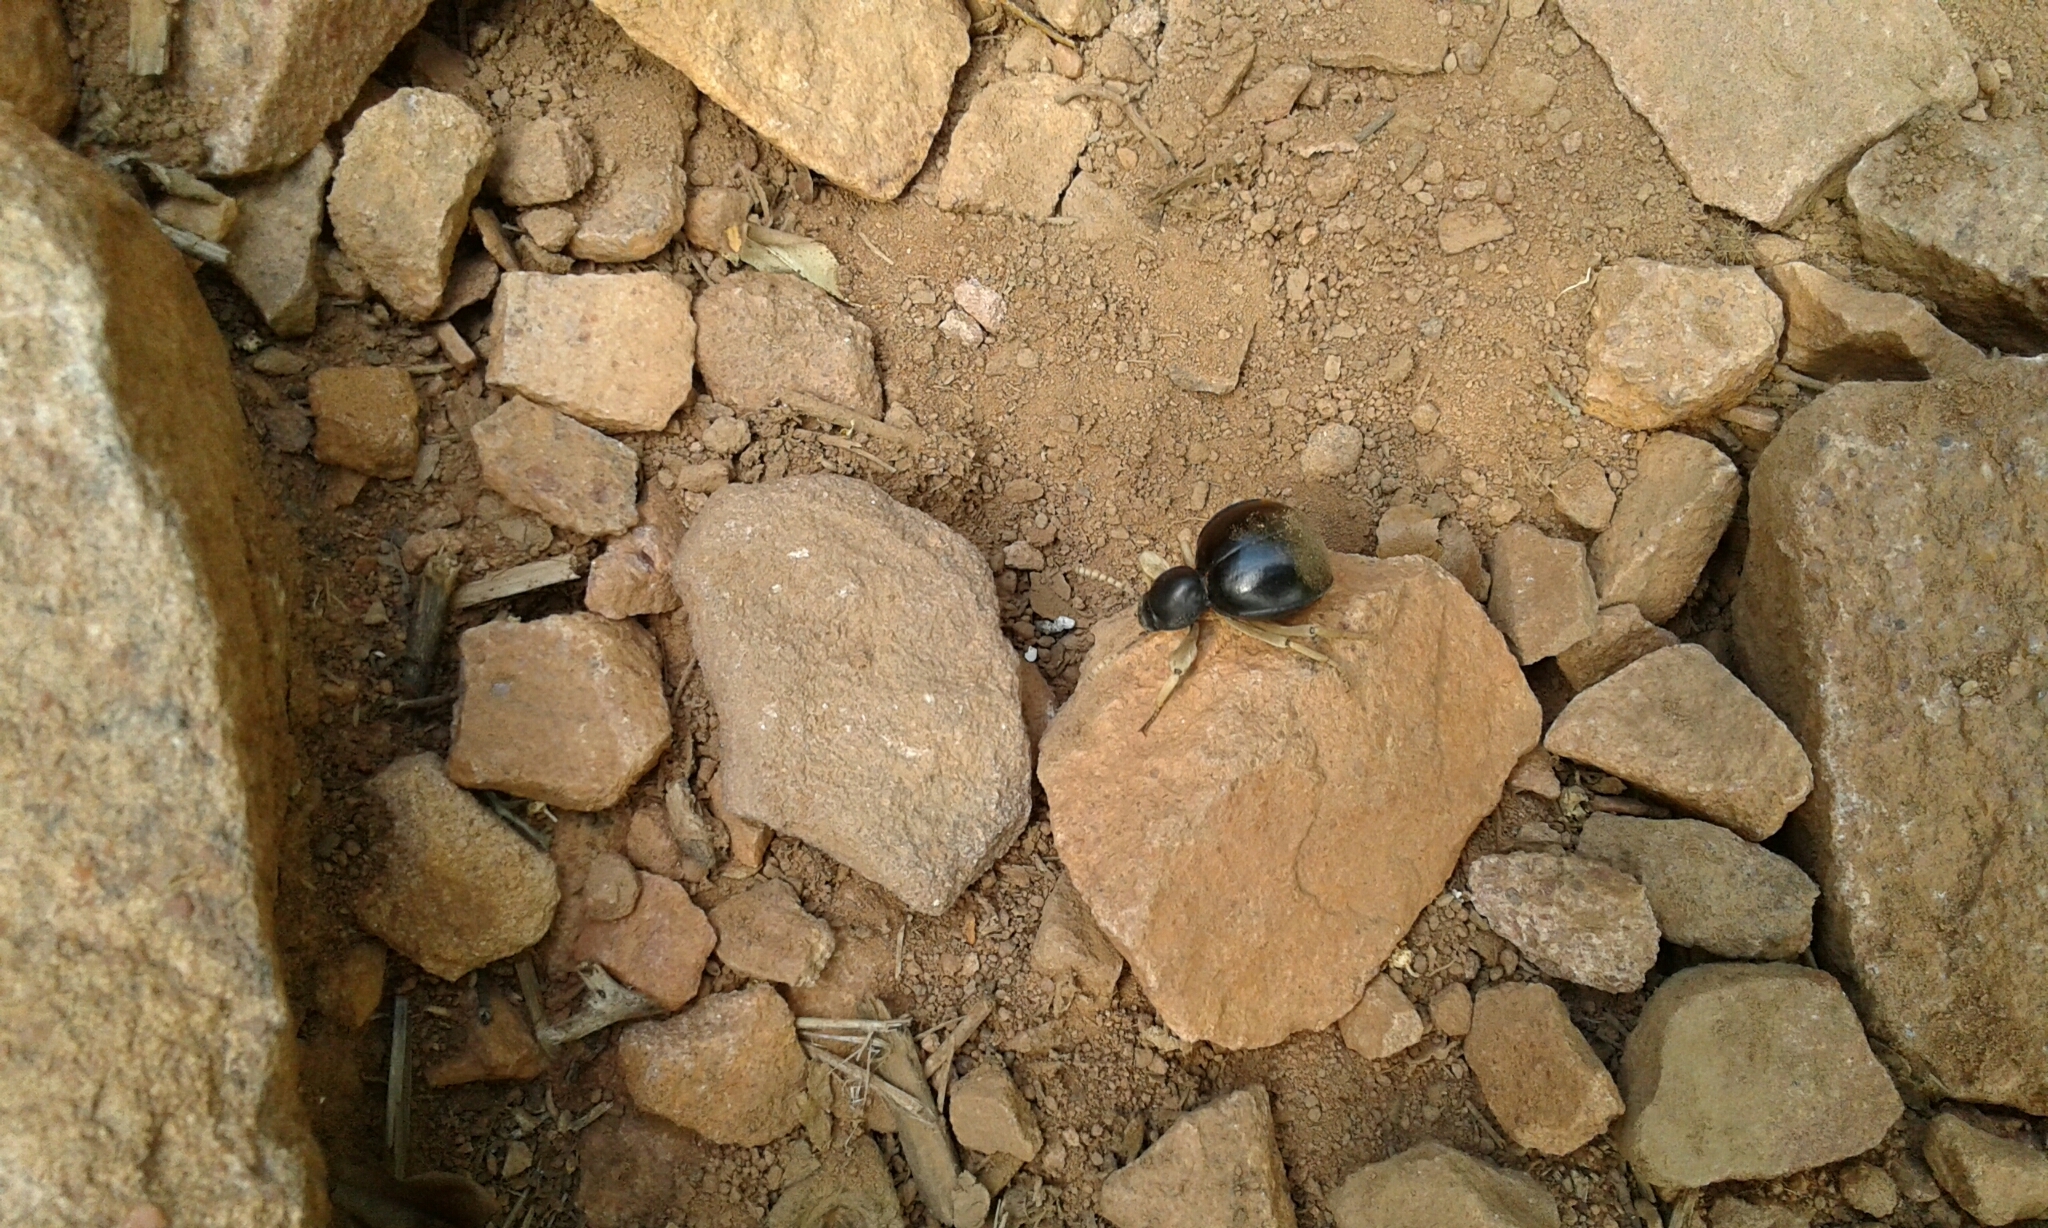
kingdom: Animalia
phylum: Arthropoda
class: Insecta
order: Coleoptera
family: Tenebrionidae
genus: Dichtha
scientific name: Dichtha cubica
